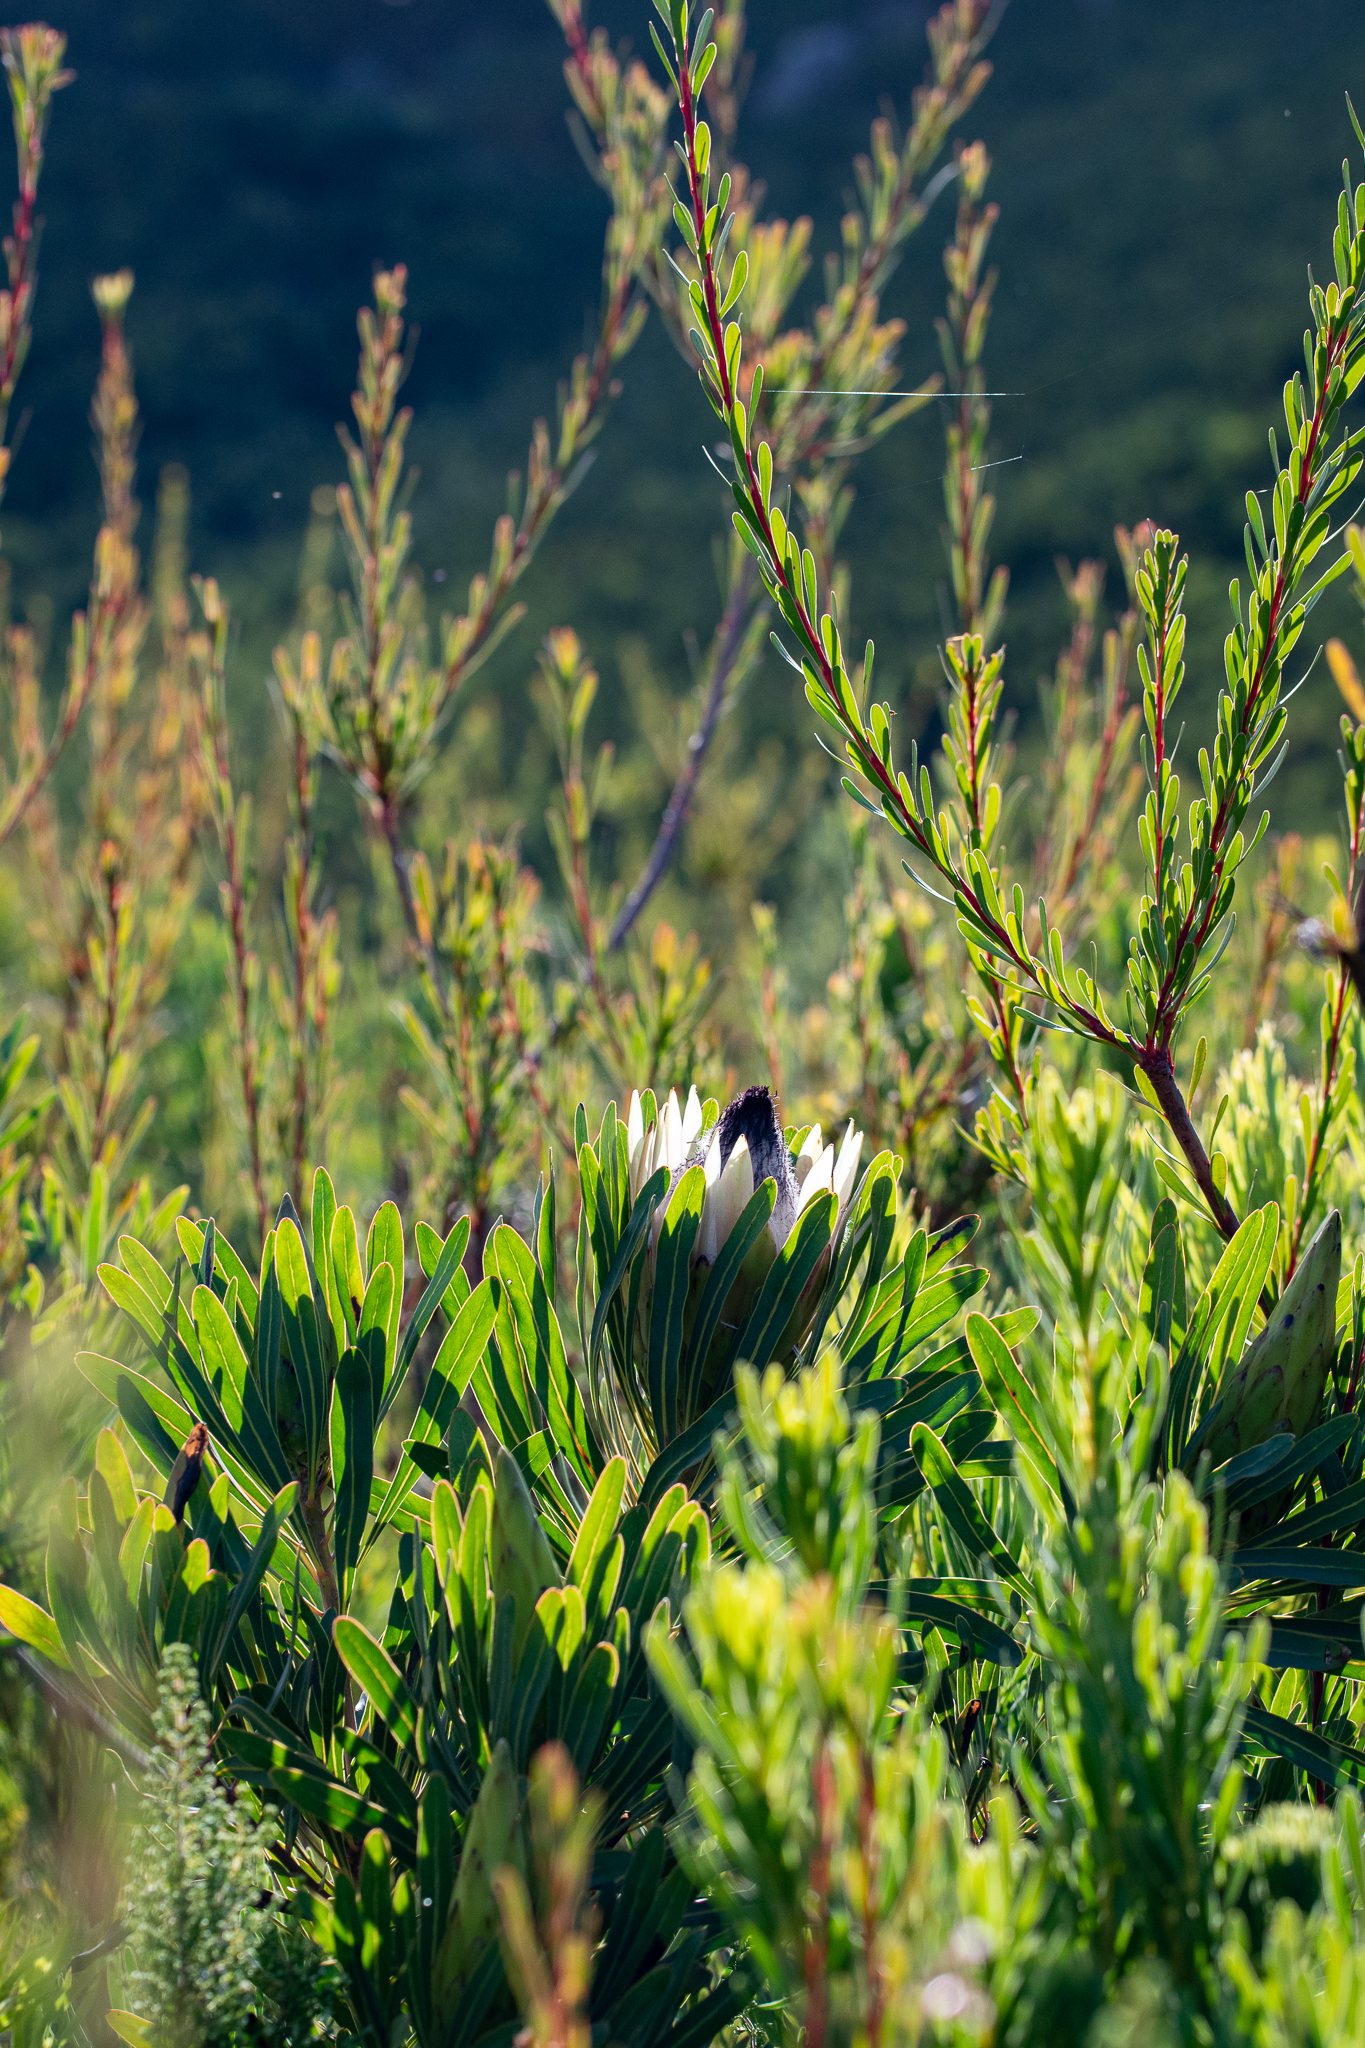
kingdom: Plantae
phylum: Tracheophyta
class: Magnoliopsida
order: Proteales
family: Proteaceae
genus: Protea
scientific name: Protea longifolia
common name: Long-leaf sugarbush
